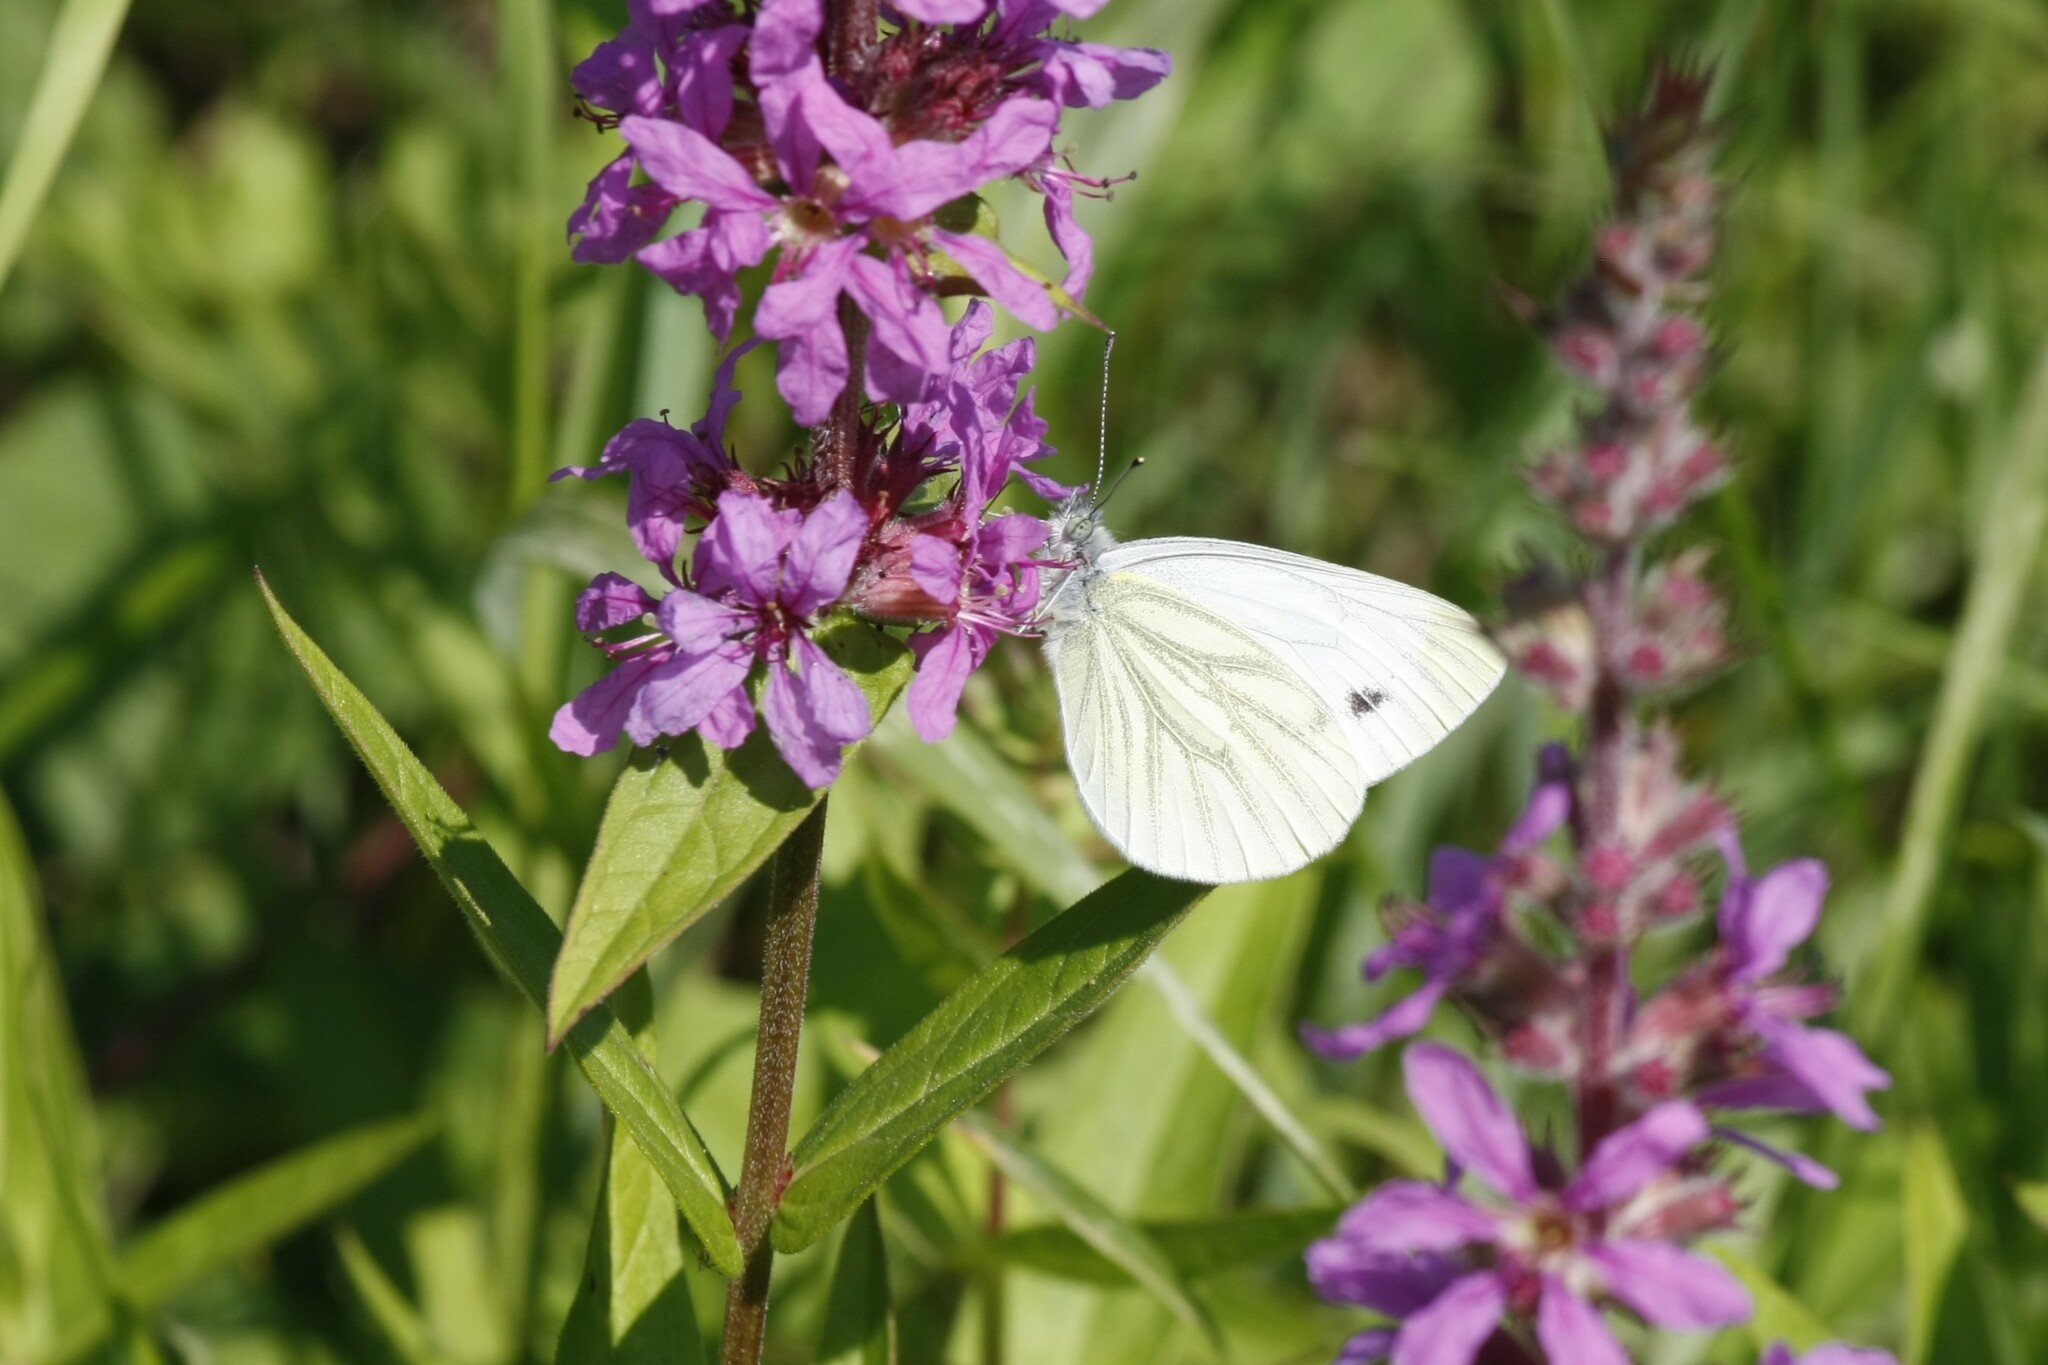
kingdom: Animalia
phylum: Arthropoda
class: Insecta
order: Lepidoptera
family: Pieridae
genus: Pieris
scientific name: Pieris napi
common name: Green-veined white
